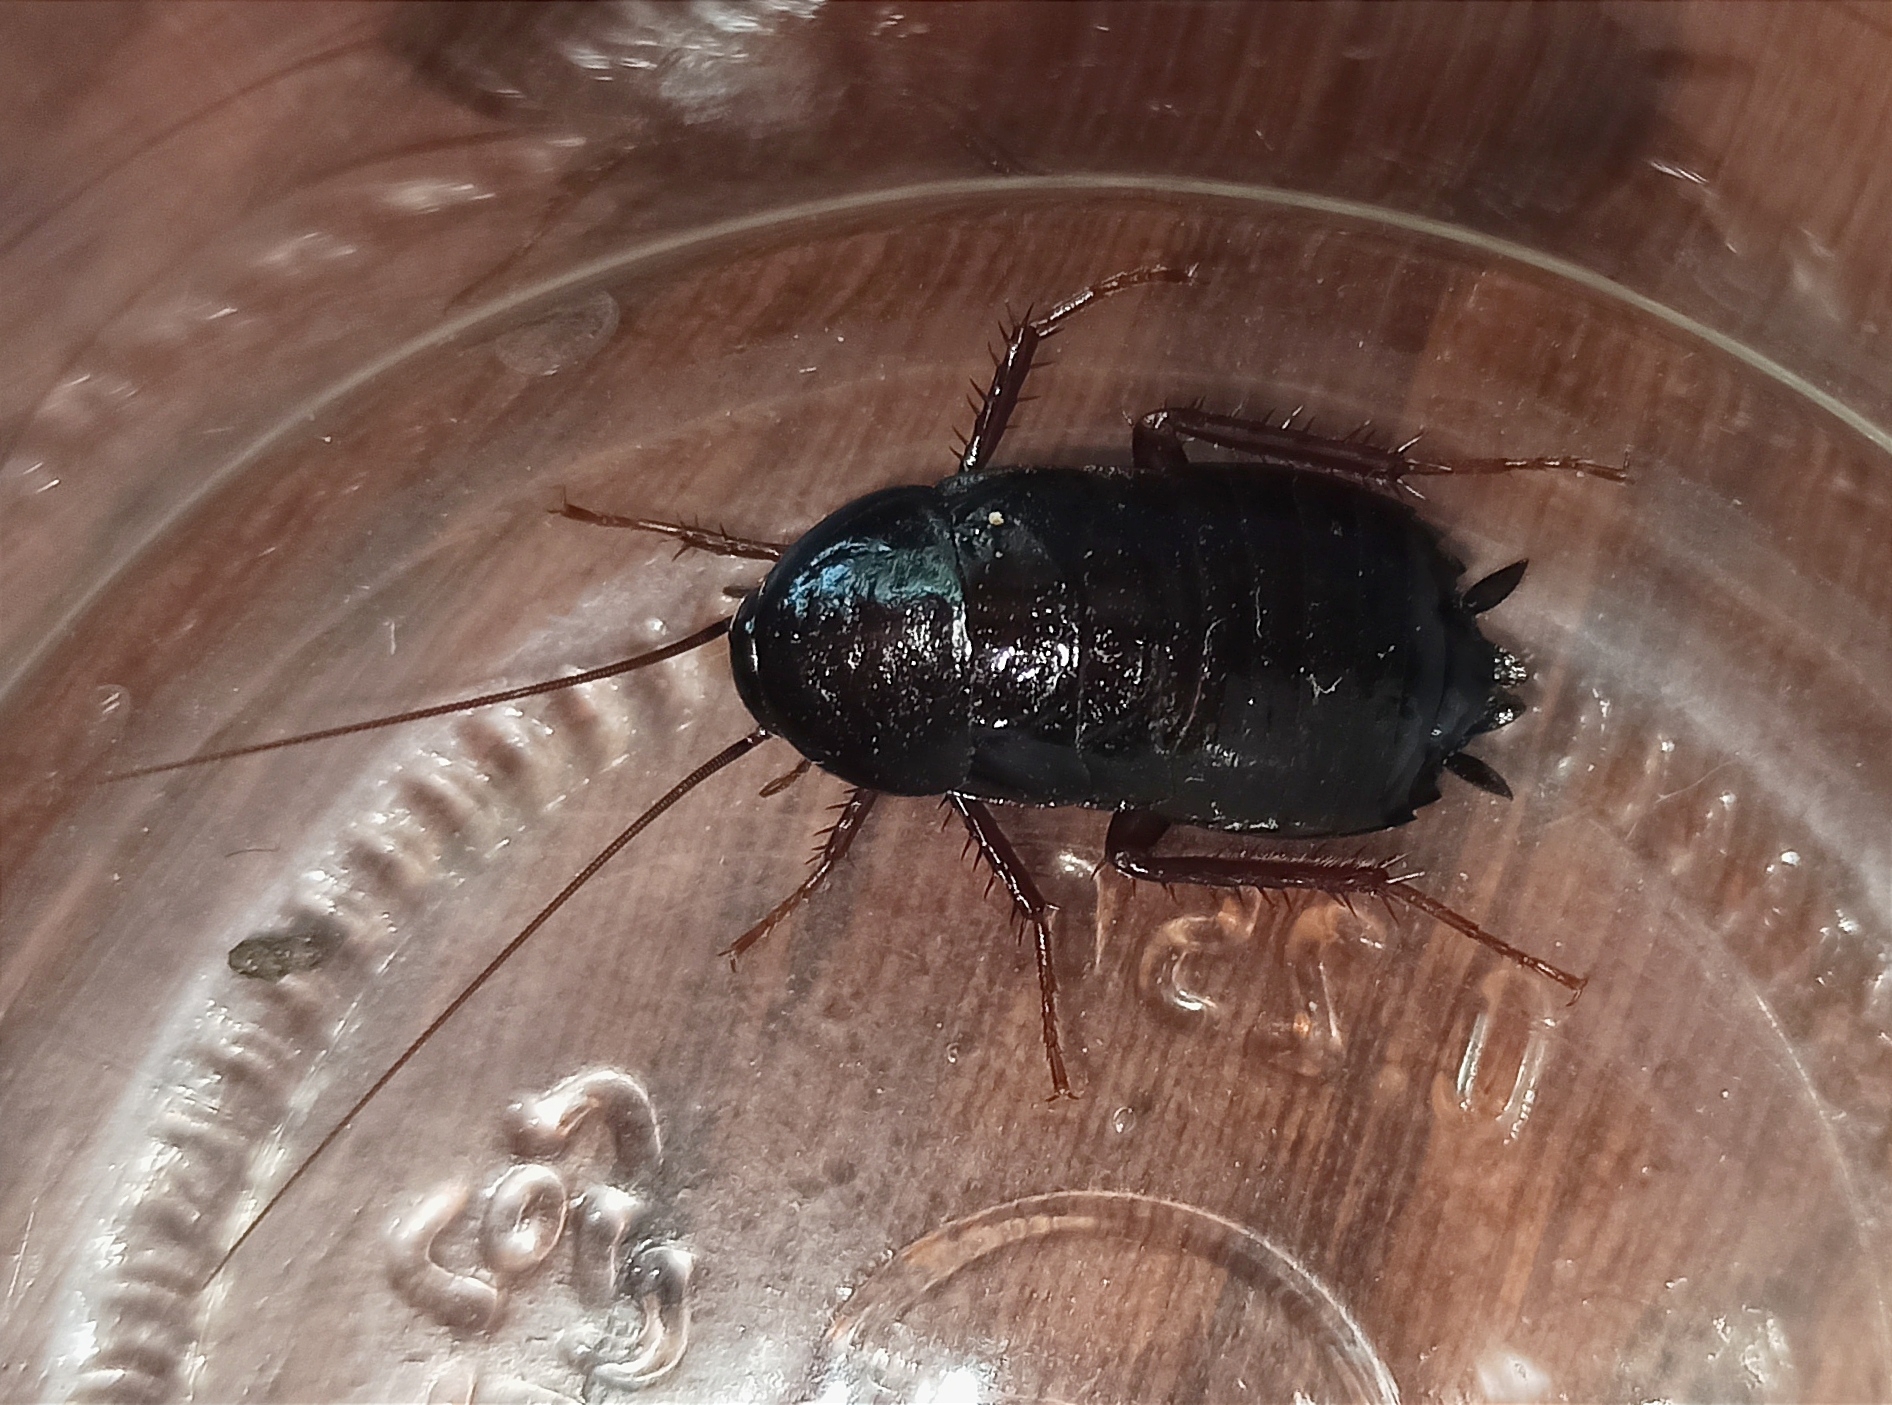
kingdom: Animalia
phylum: Arthropoda
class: Insecta
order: Blattodea
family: Blattidae
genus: Blatta
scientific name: Blatta orientalis
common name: Oriental cockroach
